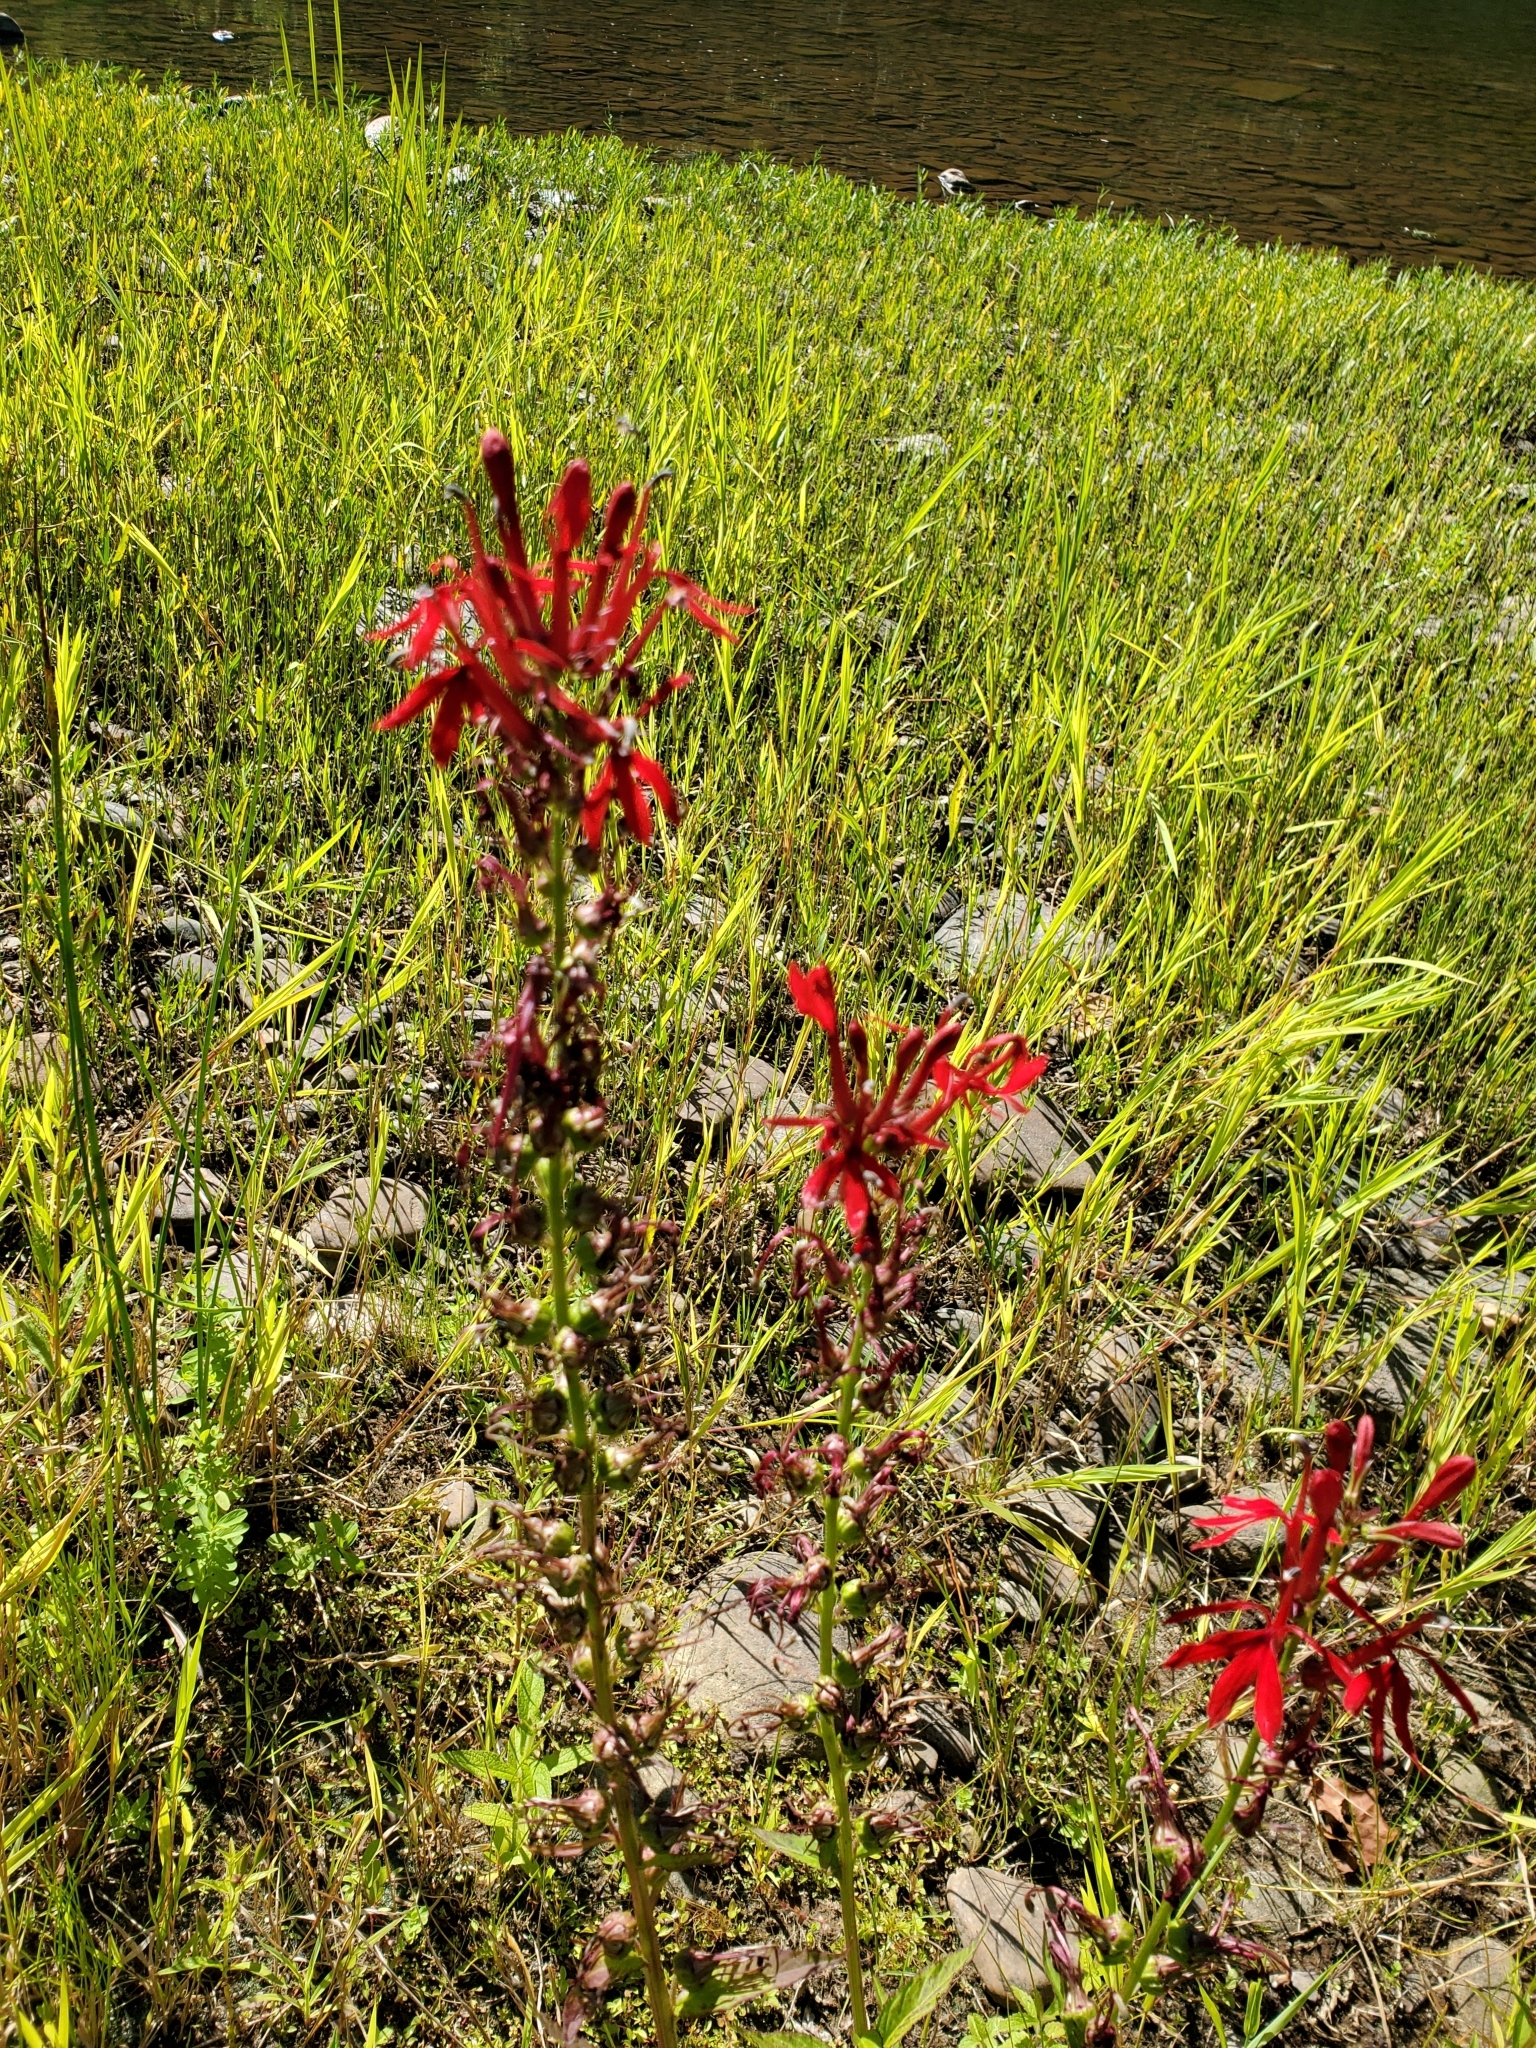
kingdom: Plantae
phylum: Tracheophyta
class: Magnoliopsida
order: Asterales
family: Campanulaceae
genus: Lobelia
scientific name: Lobelia cardinalis
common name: Cardinal flower
